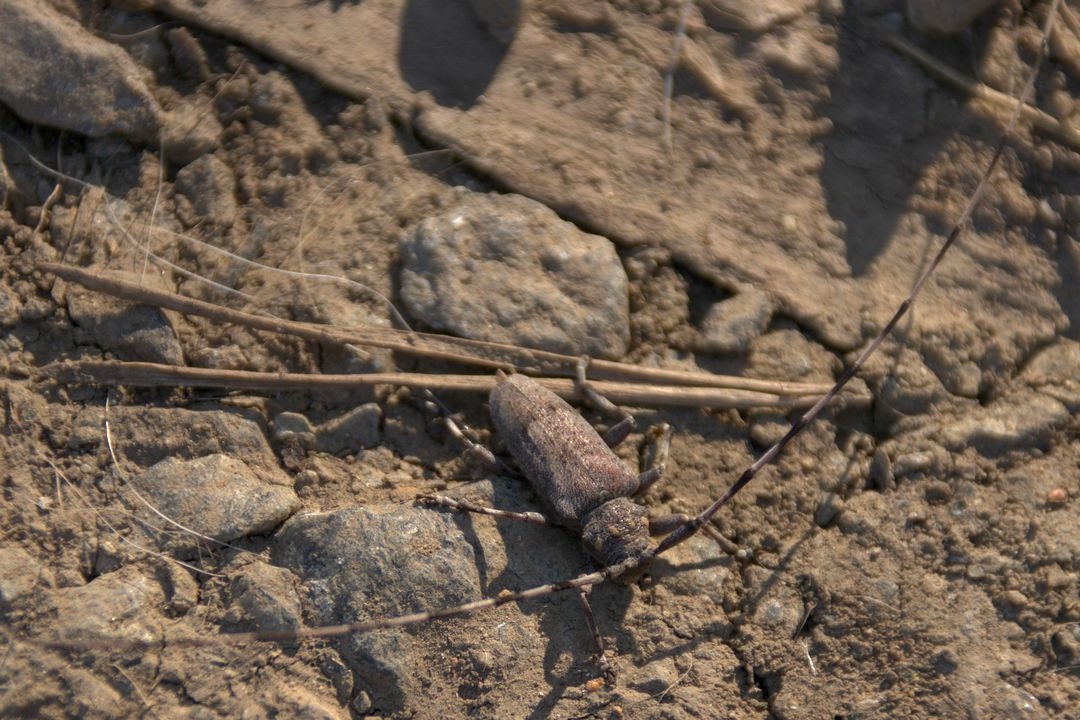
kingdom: Animalia
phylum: Arthropoda
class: Insecta
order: Coleoptera
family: Cerambycidae
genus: Acanthocinus
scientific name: Acanthocinus aedilis
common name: Timberman beetle
